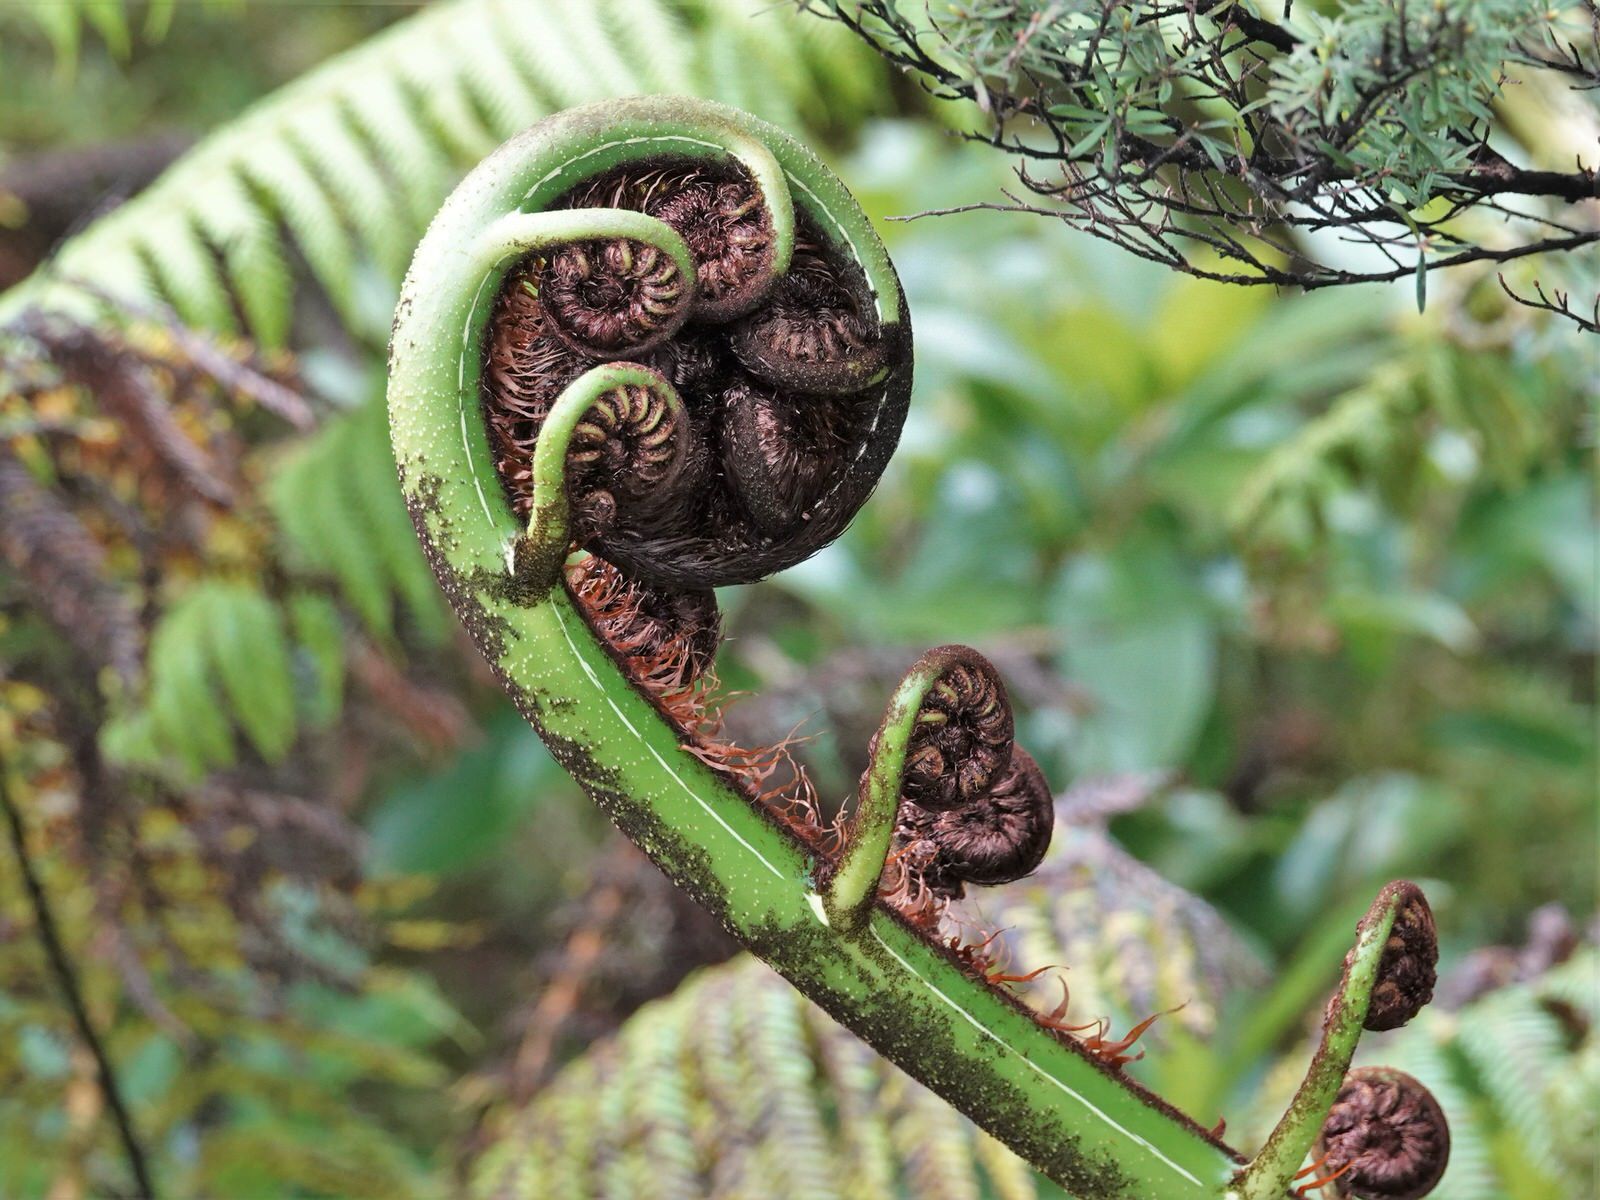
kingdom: Plantae
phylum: Tracheophyta
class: Polypodiopsida
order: Cyatheales
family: Cyatheaceae
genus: Sphaeropteris
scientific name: Sphaeropteris medullaris
